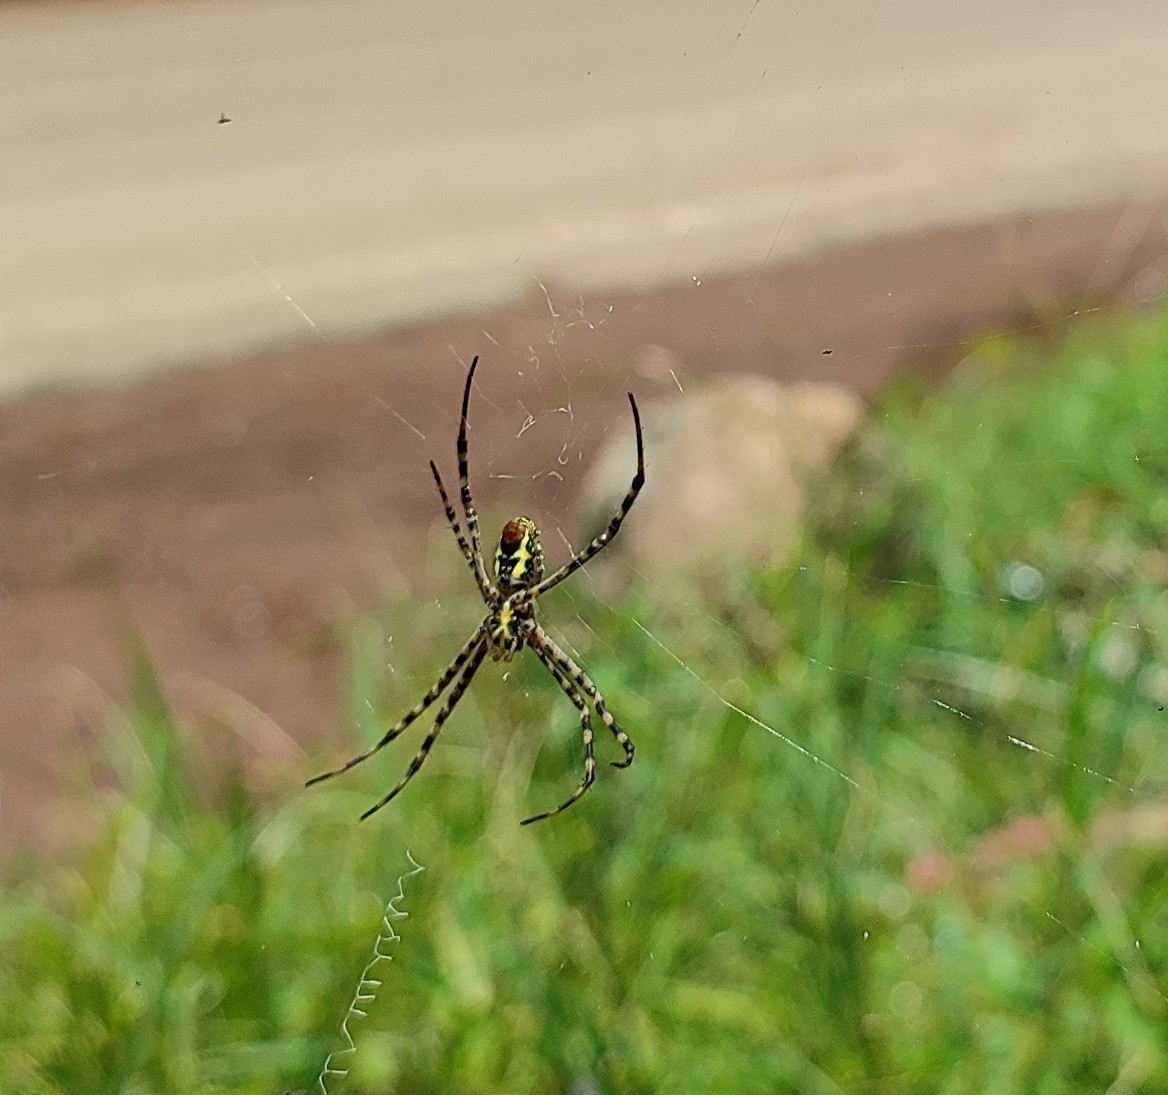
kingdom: Animalia
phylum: Arthropoda
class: Arachnida
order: Araneae
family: Araneidae
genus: Argiope
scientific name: Argiope aemula
